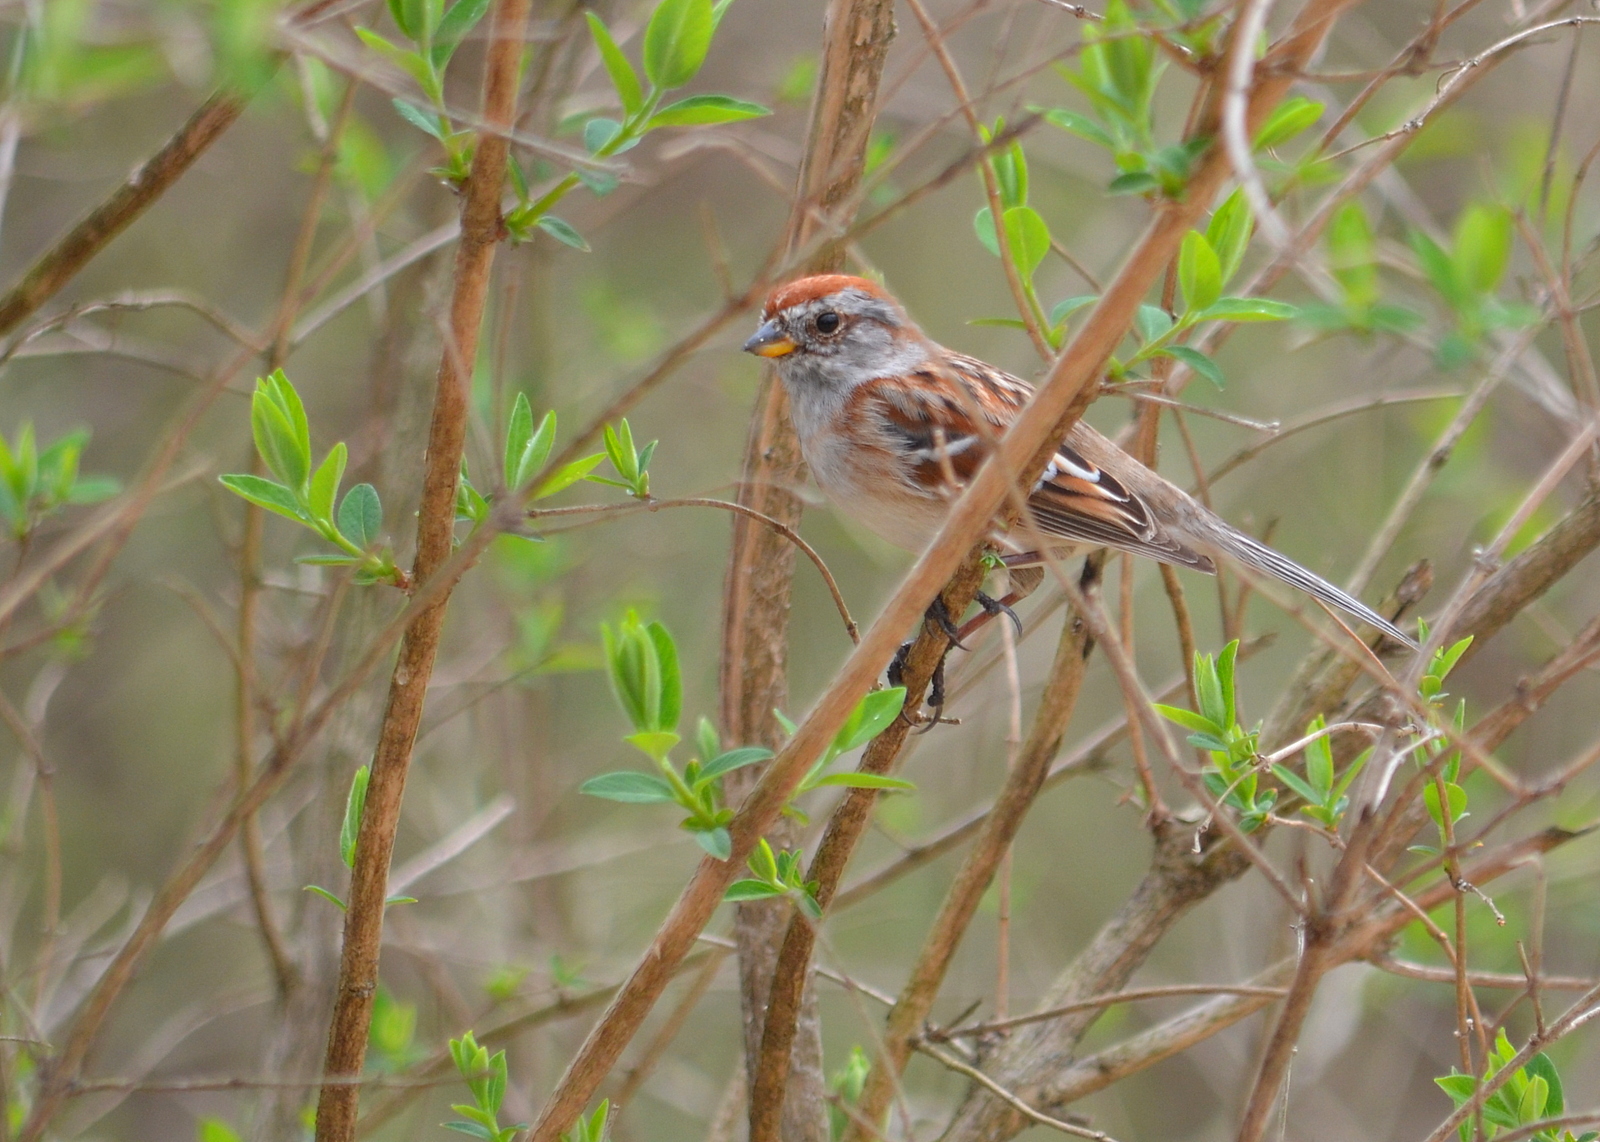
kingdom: Animalia
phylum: Chordata
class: Aves
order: Passeriformes
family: Passerellidae
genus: Spizelloides
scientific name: Spizelloides arborea
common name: American tree sparrow
